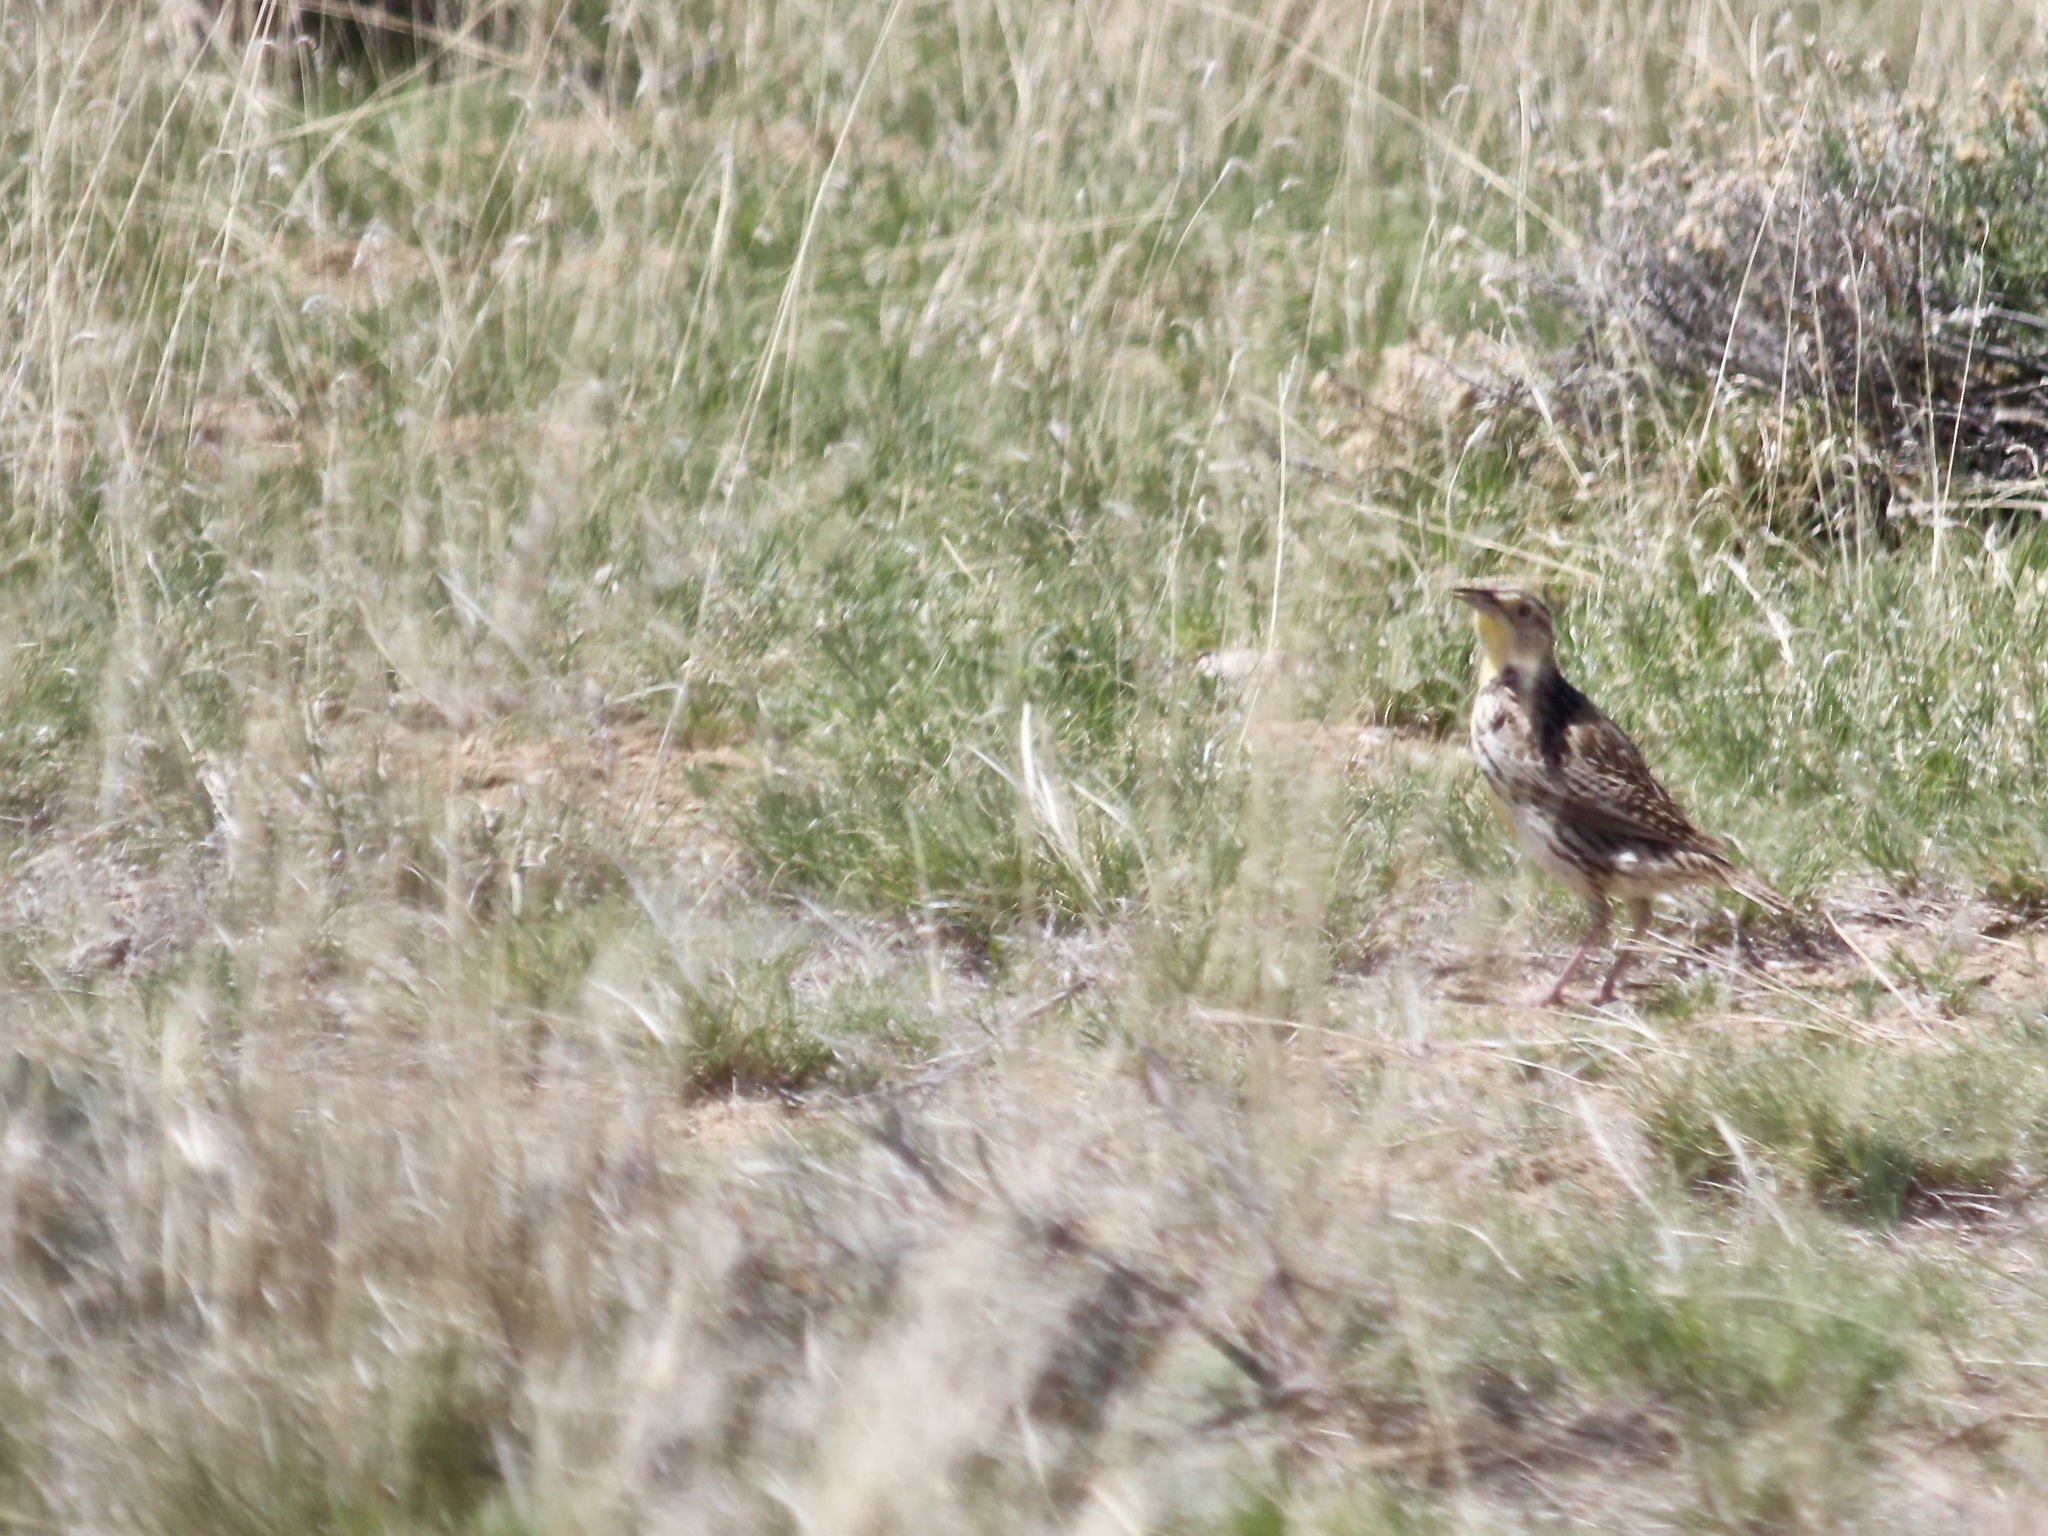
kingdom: Animalia
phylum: Chordata
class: Aves
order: Passeriformes
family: Icteridae
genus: Sturnella
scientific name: Sturnella neglecta
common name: Western meadowlark
